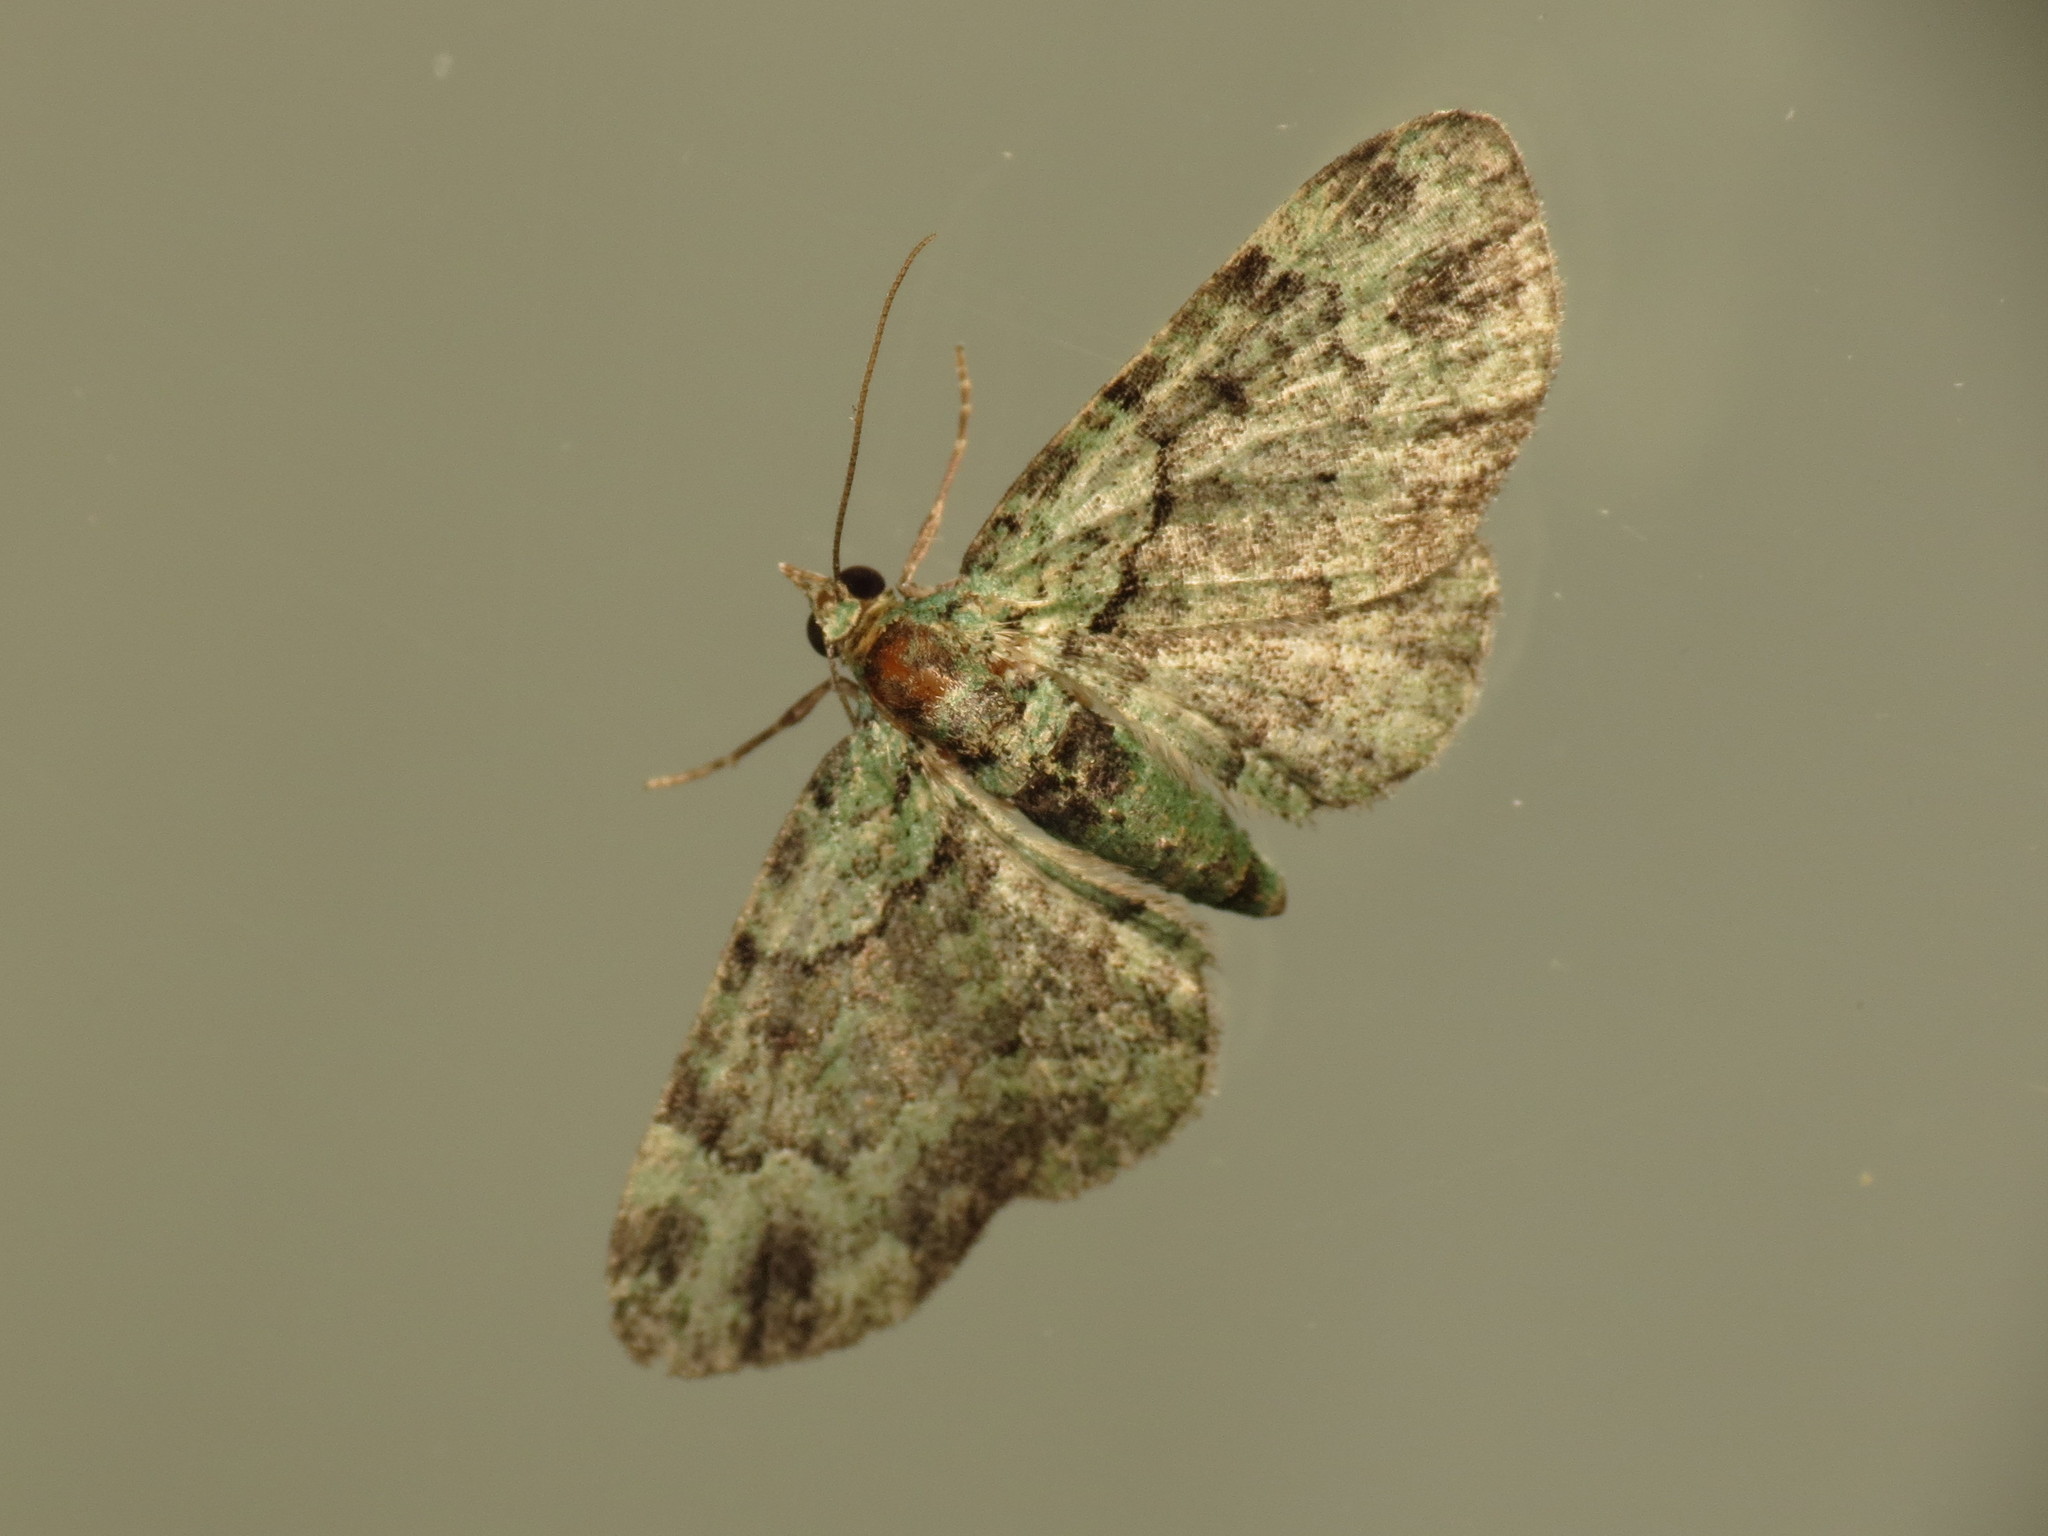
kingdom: Animalia
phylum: Arthropoda
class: Insecta
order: Lepidoptera
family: Geometridae
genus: Pasiphila
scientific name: Pasiphila rectangulata
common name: Green pug
